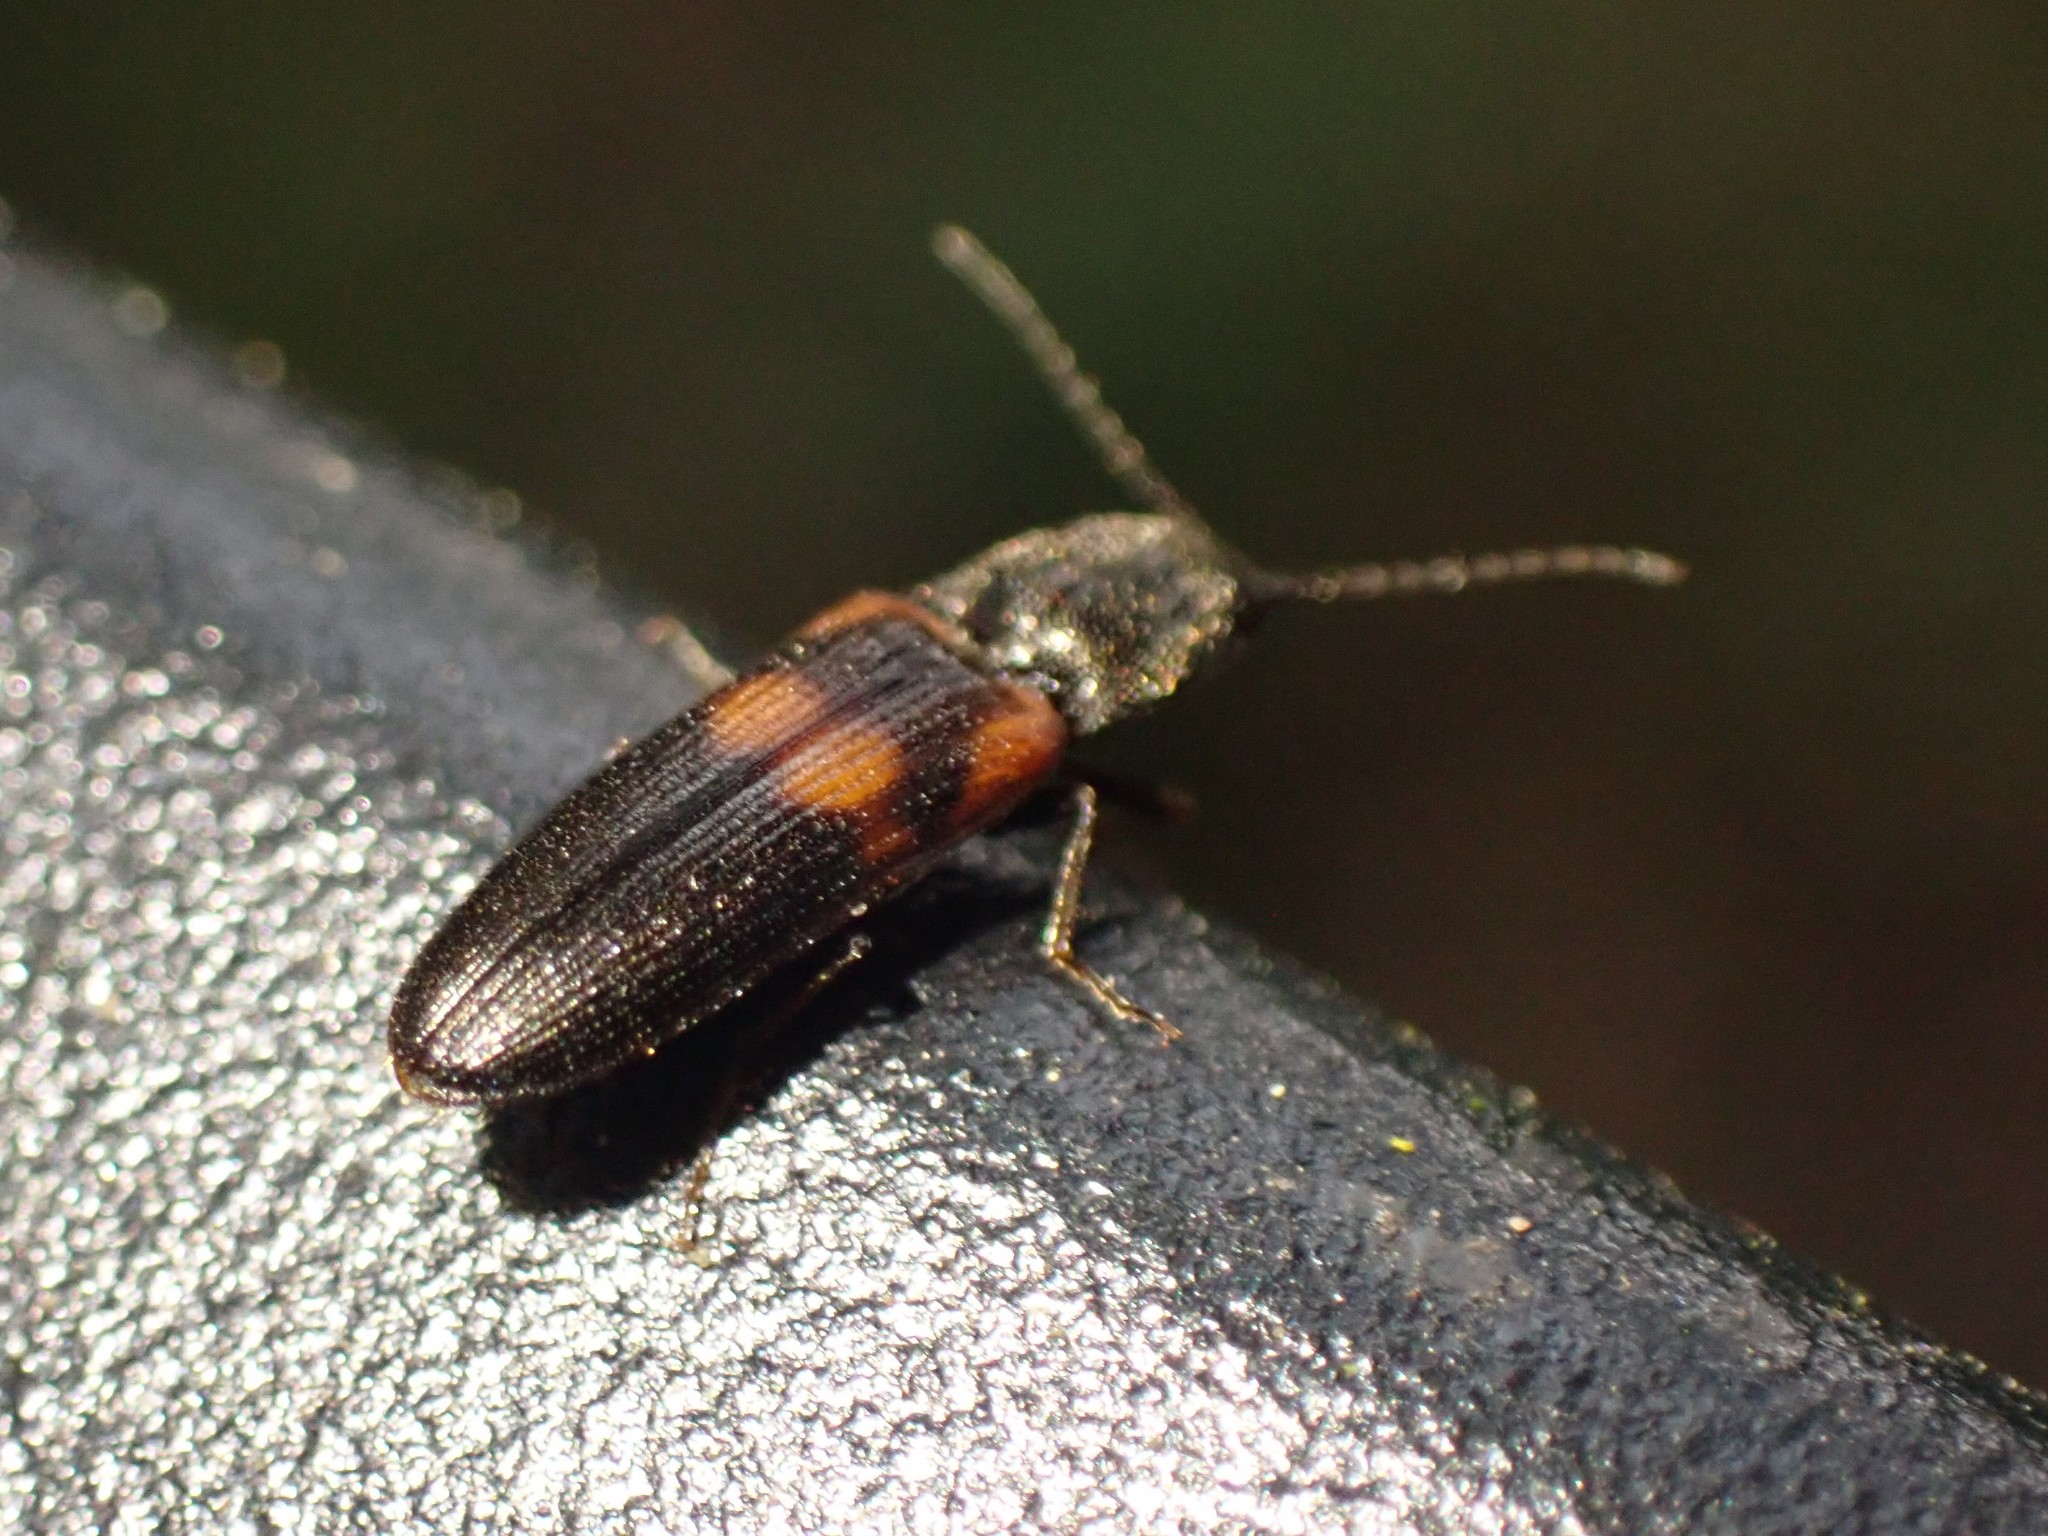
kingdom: Animalia
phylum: Arthropoda
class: Insecta
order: Coleoptera
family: Elateridae
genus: Gambrinus
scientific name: Gambrinus
